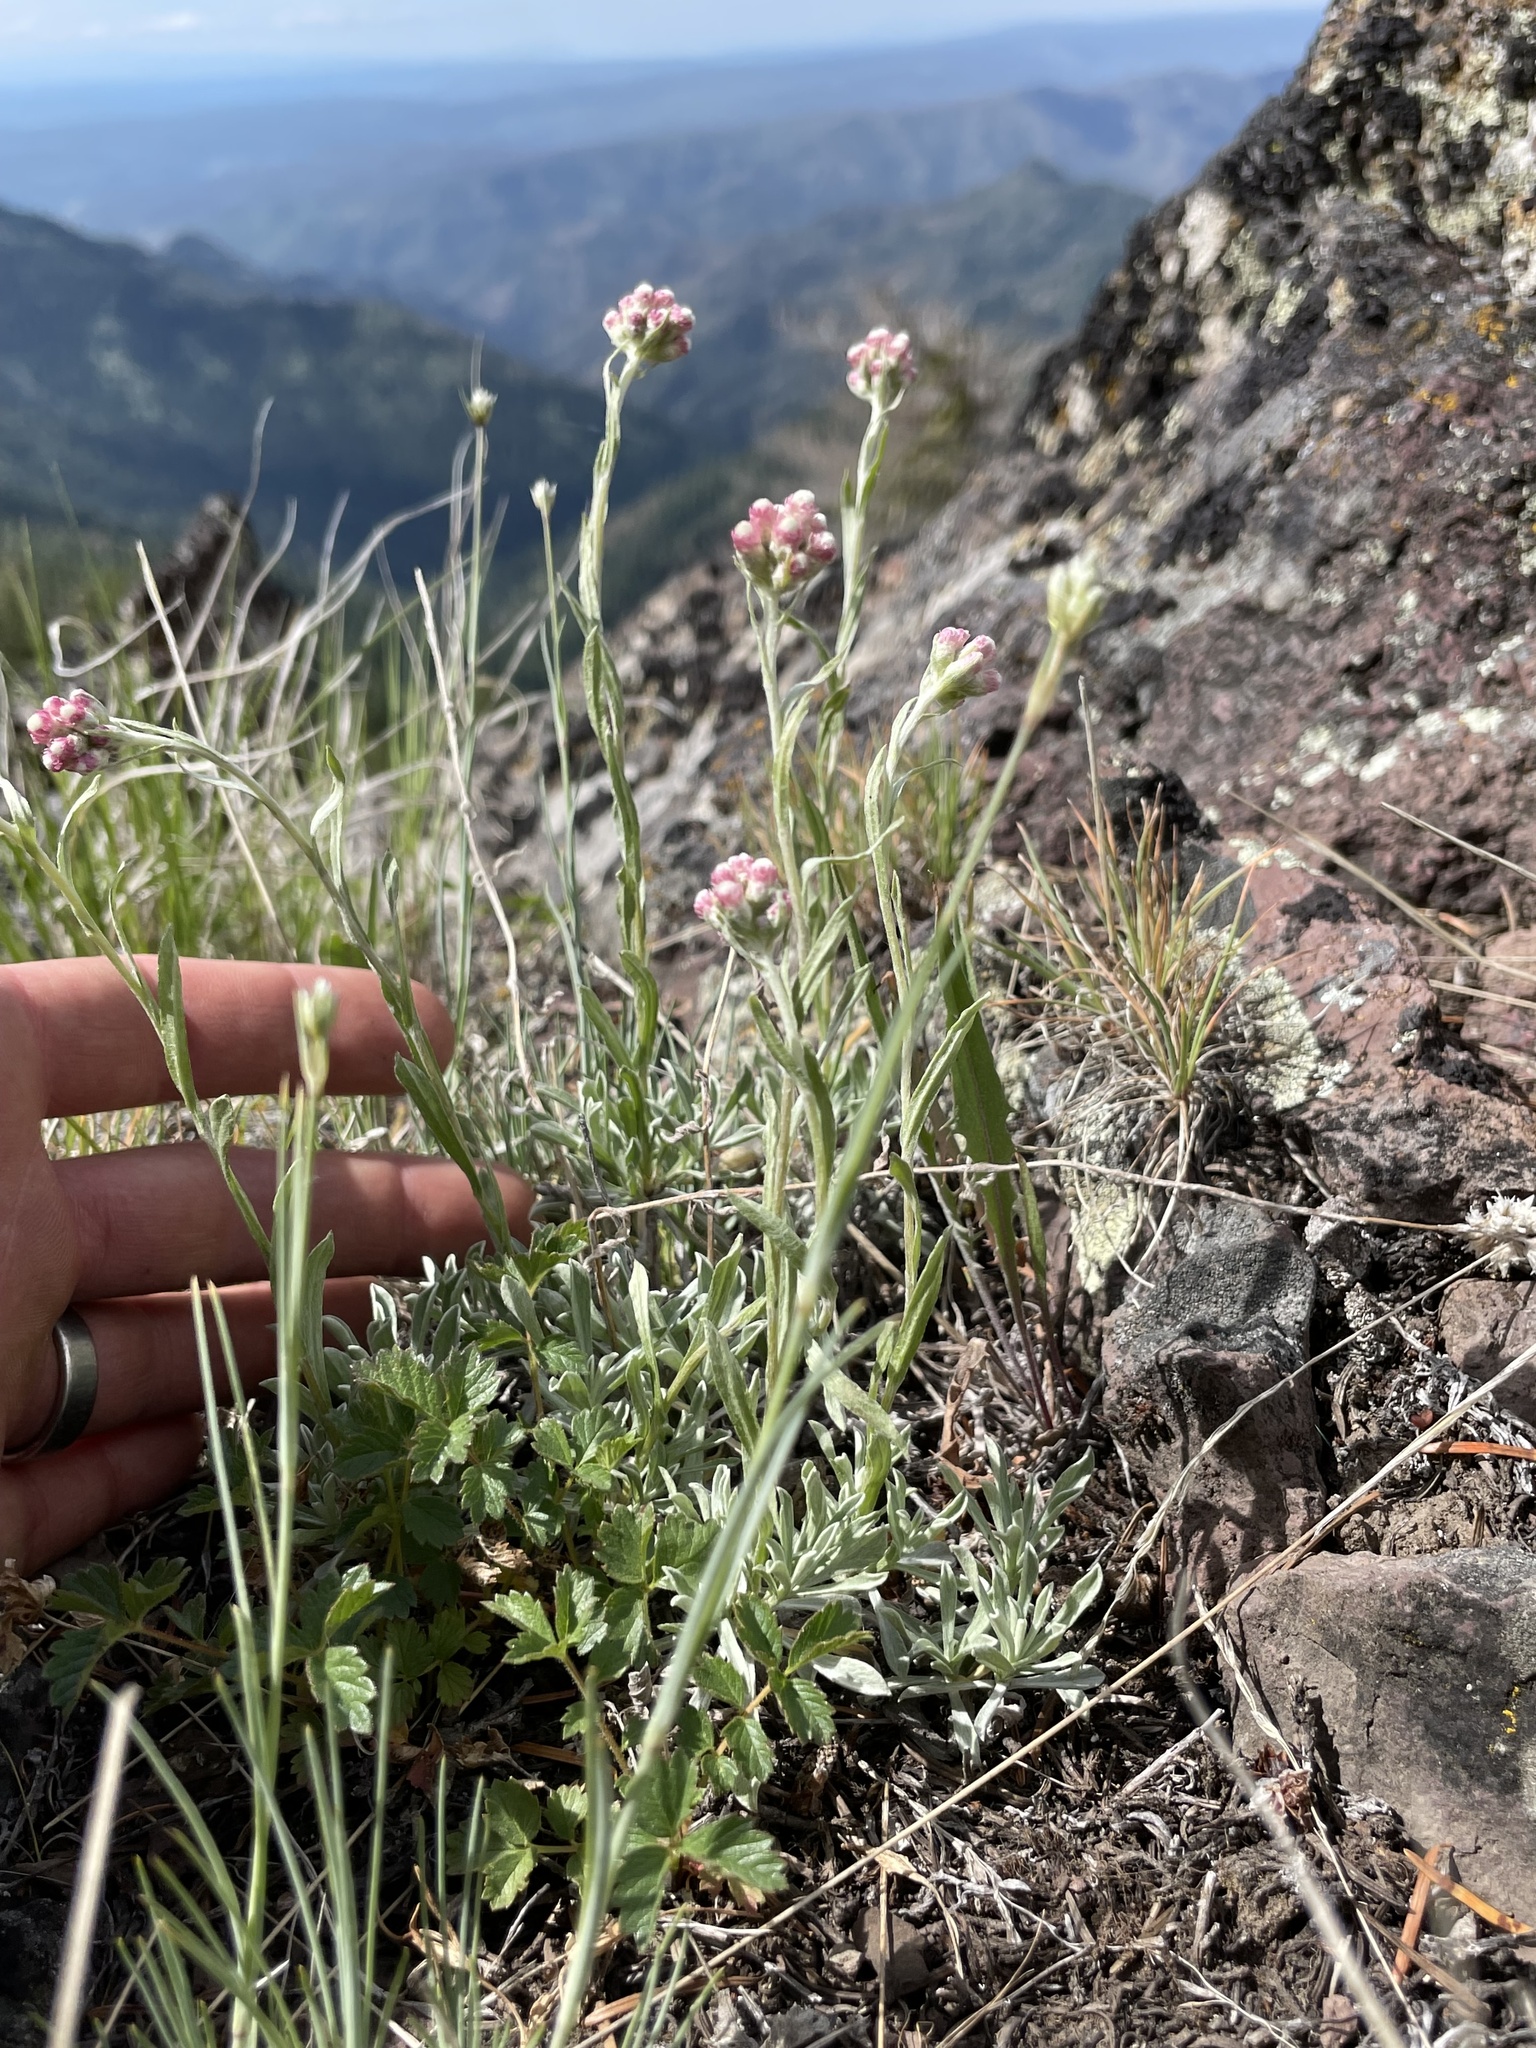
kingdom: Plantae
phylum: Tracheophyta
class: Magnoliopsida
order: Asterales
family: Asteraceae
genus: Antennaria
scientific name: Antennaria rosea
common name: Rosy pussytoes
